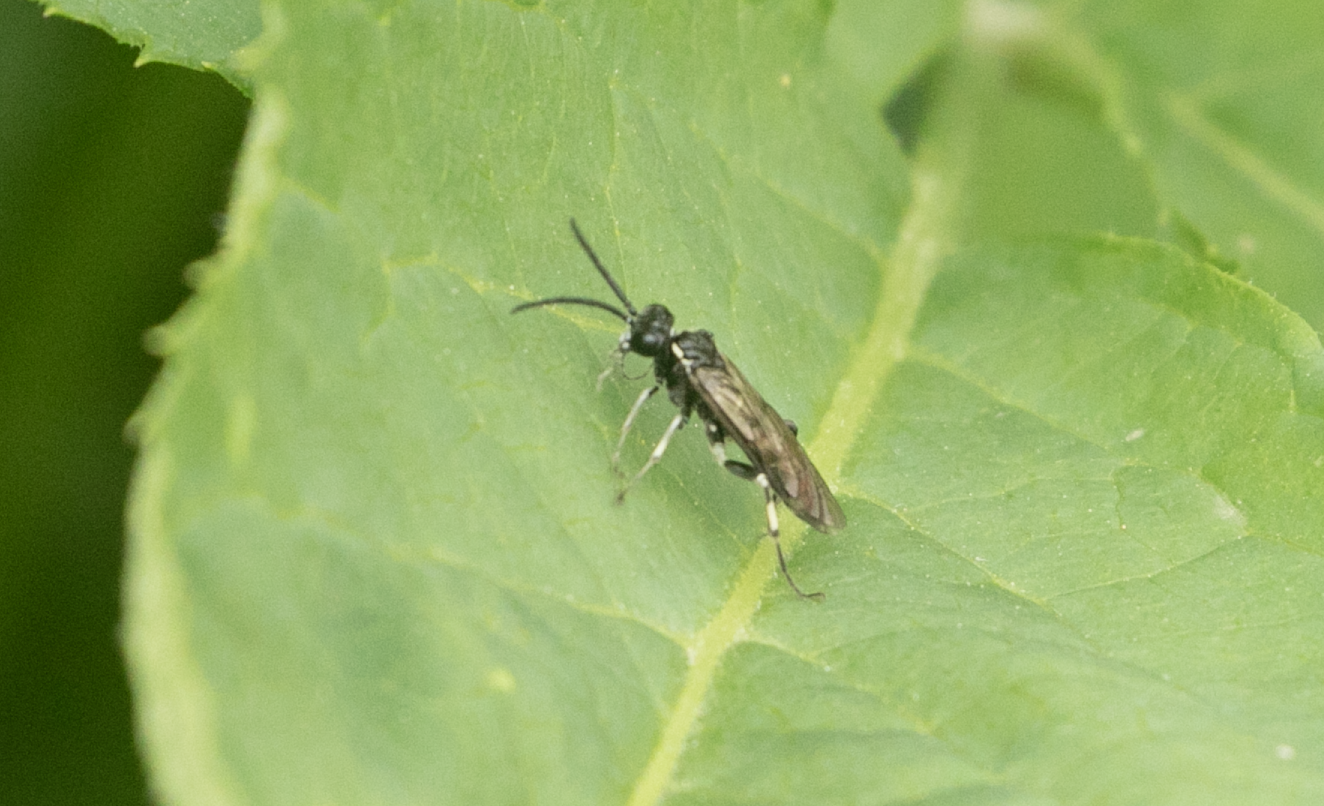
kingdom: Animalia
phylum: Arthropoda
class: Insecta
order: Hymenoptera
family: Tenthredinidae
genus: Macrophya
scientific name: Macrophya alboannulata
